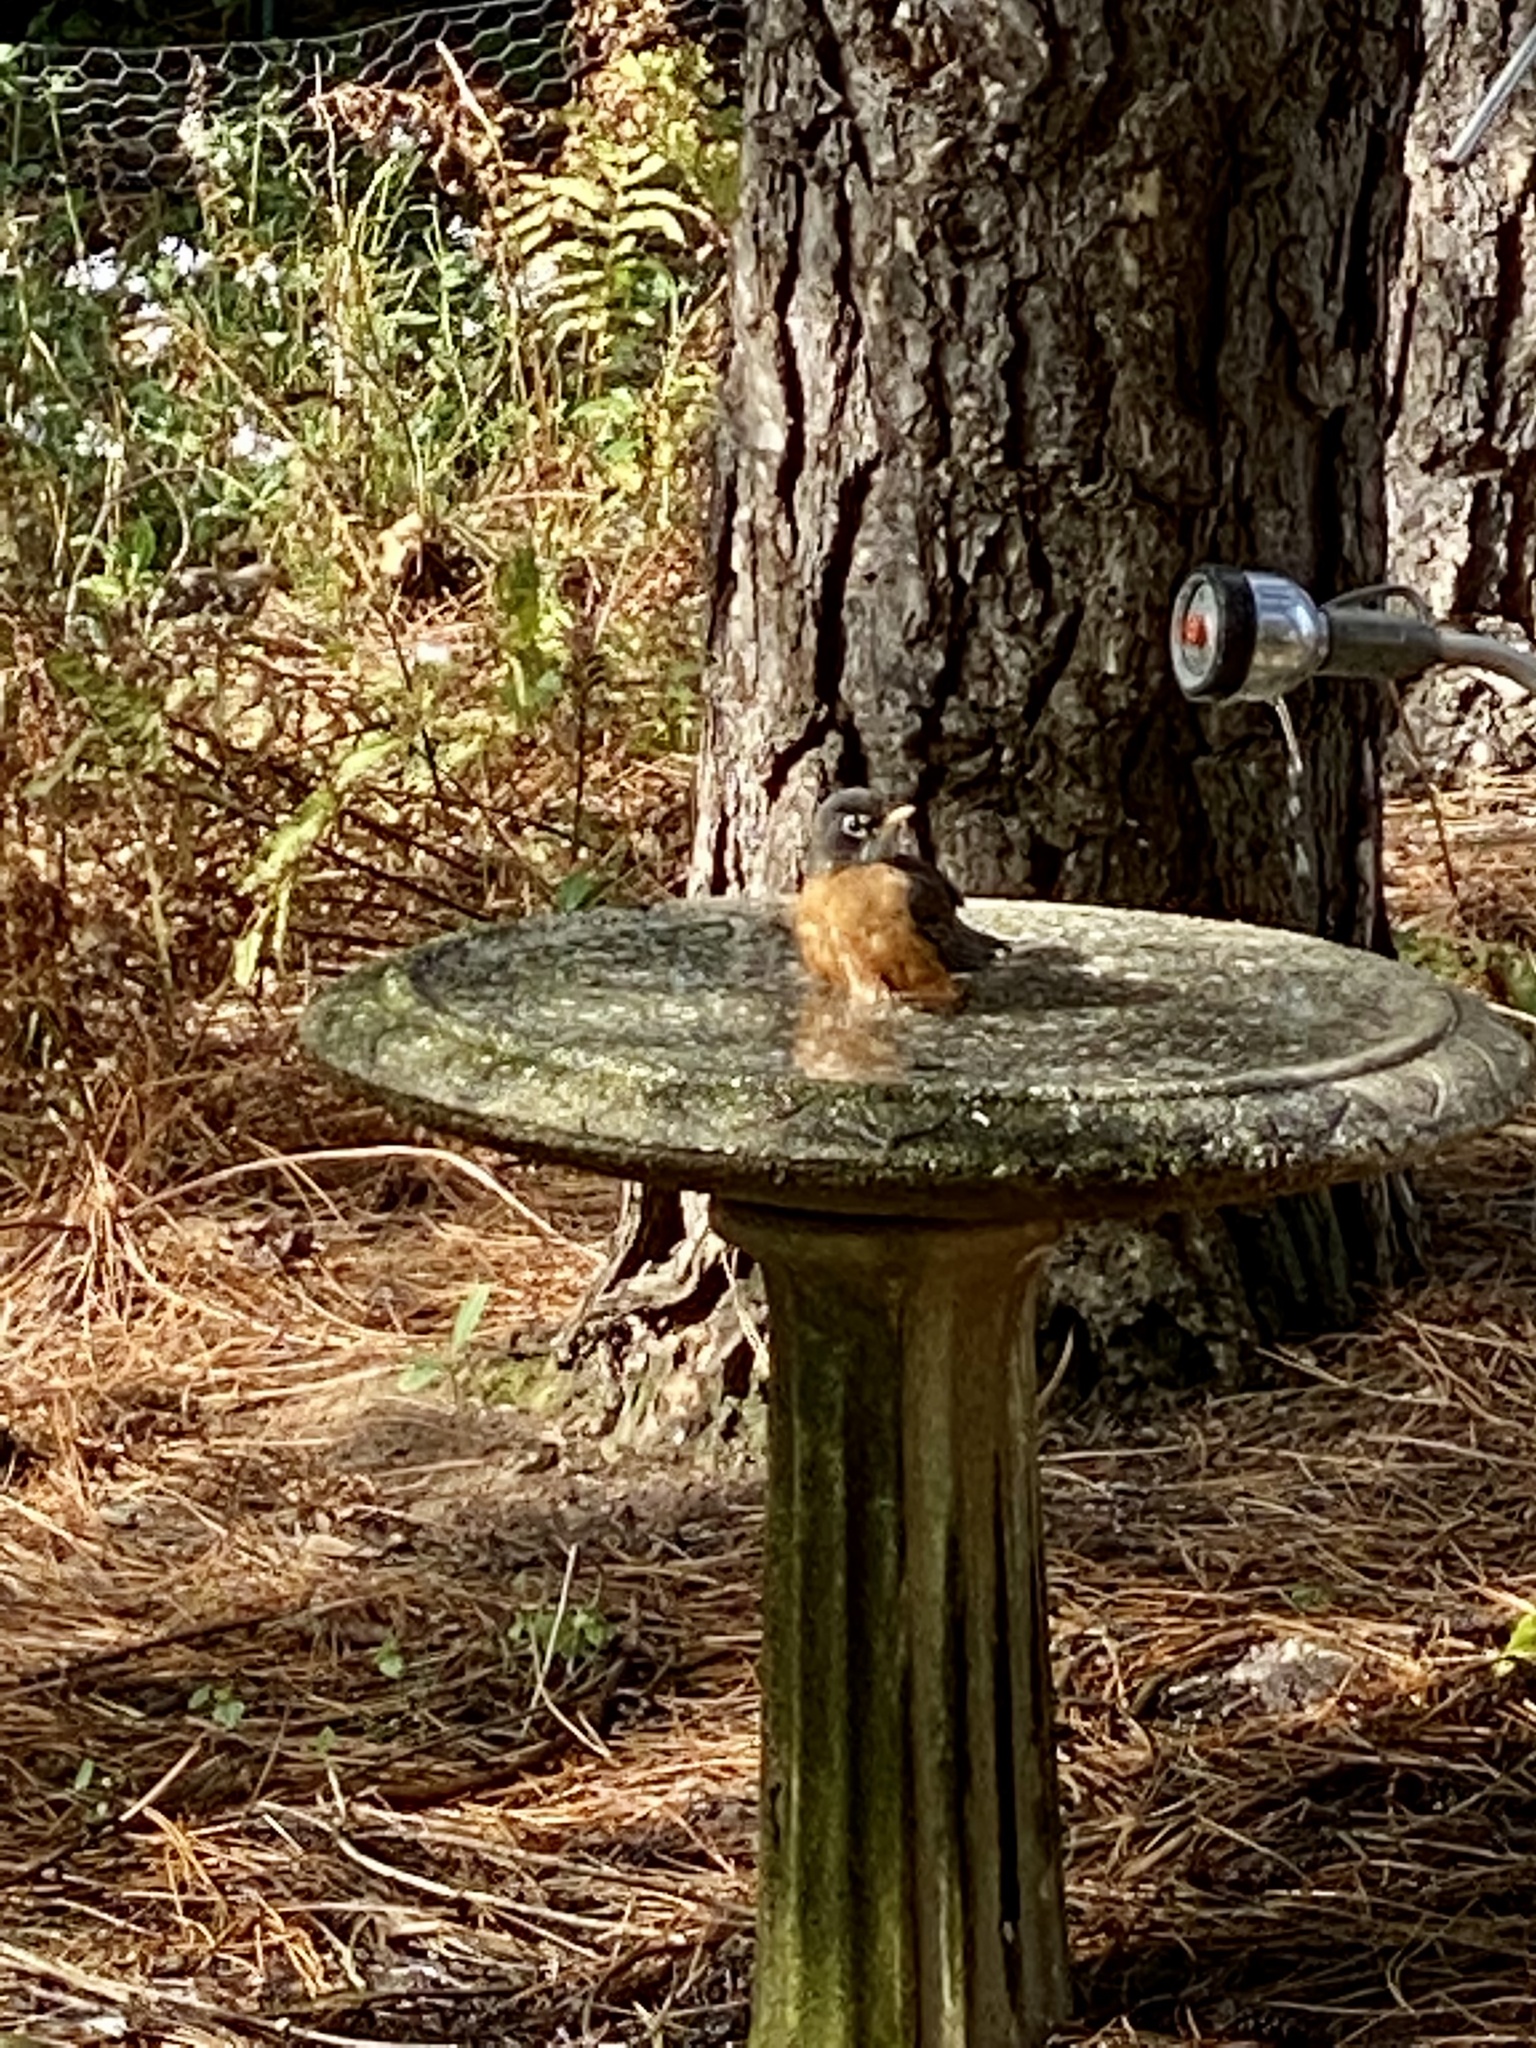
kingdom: Animalia
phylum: Chordata
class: Aves
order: Passeriformes
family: Turdidae
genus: Turdus
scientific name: Turdus migratorius
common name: American robin
